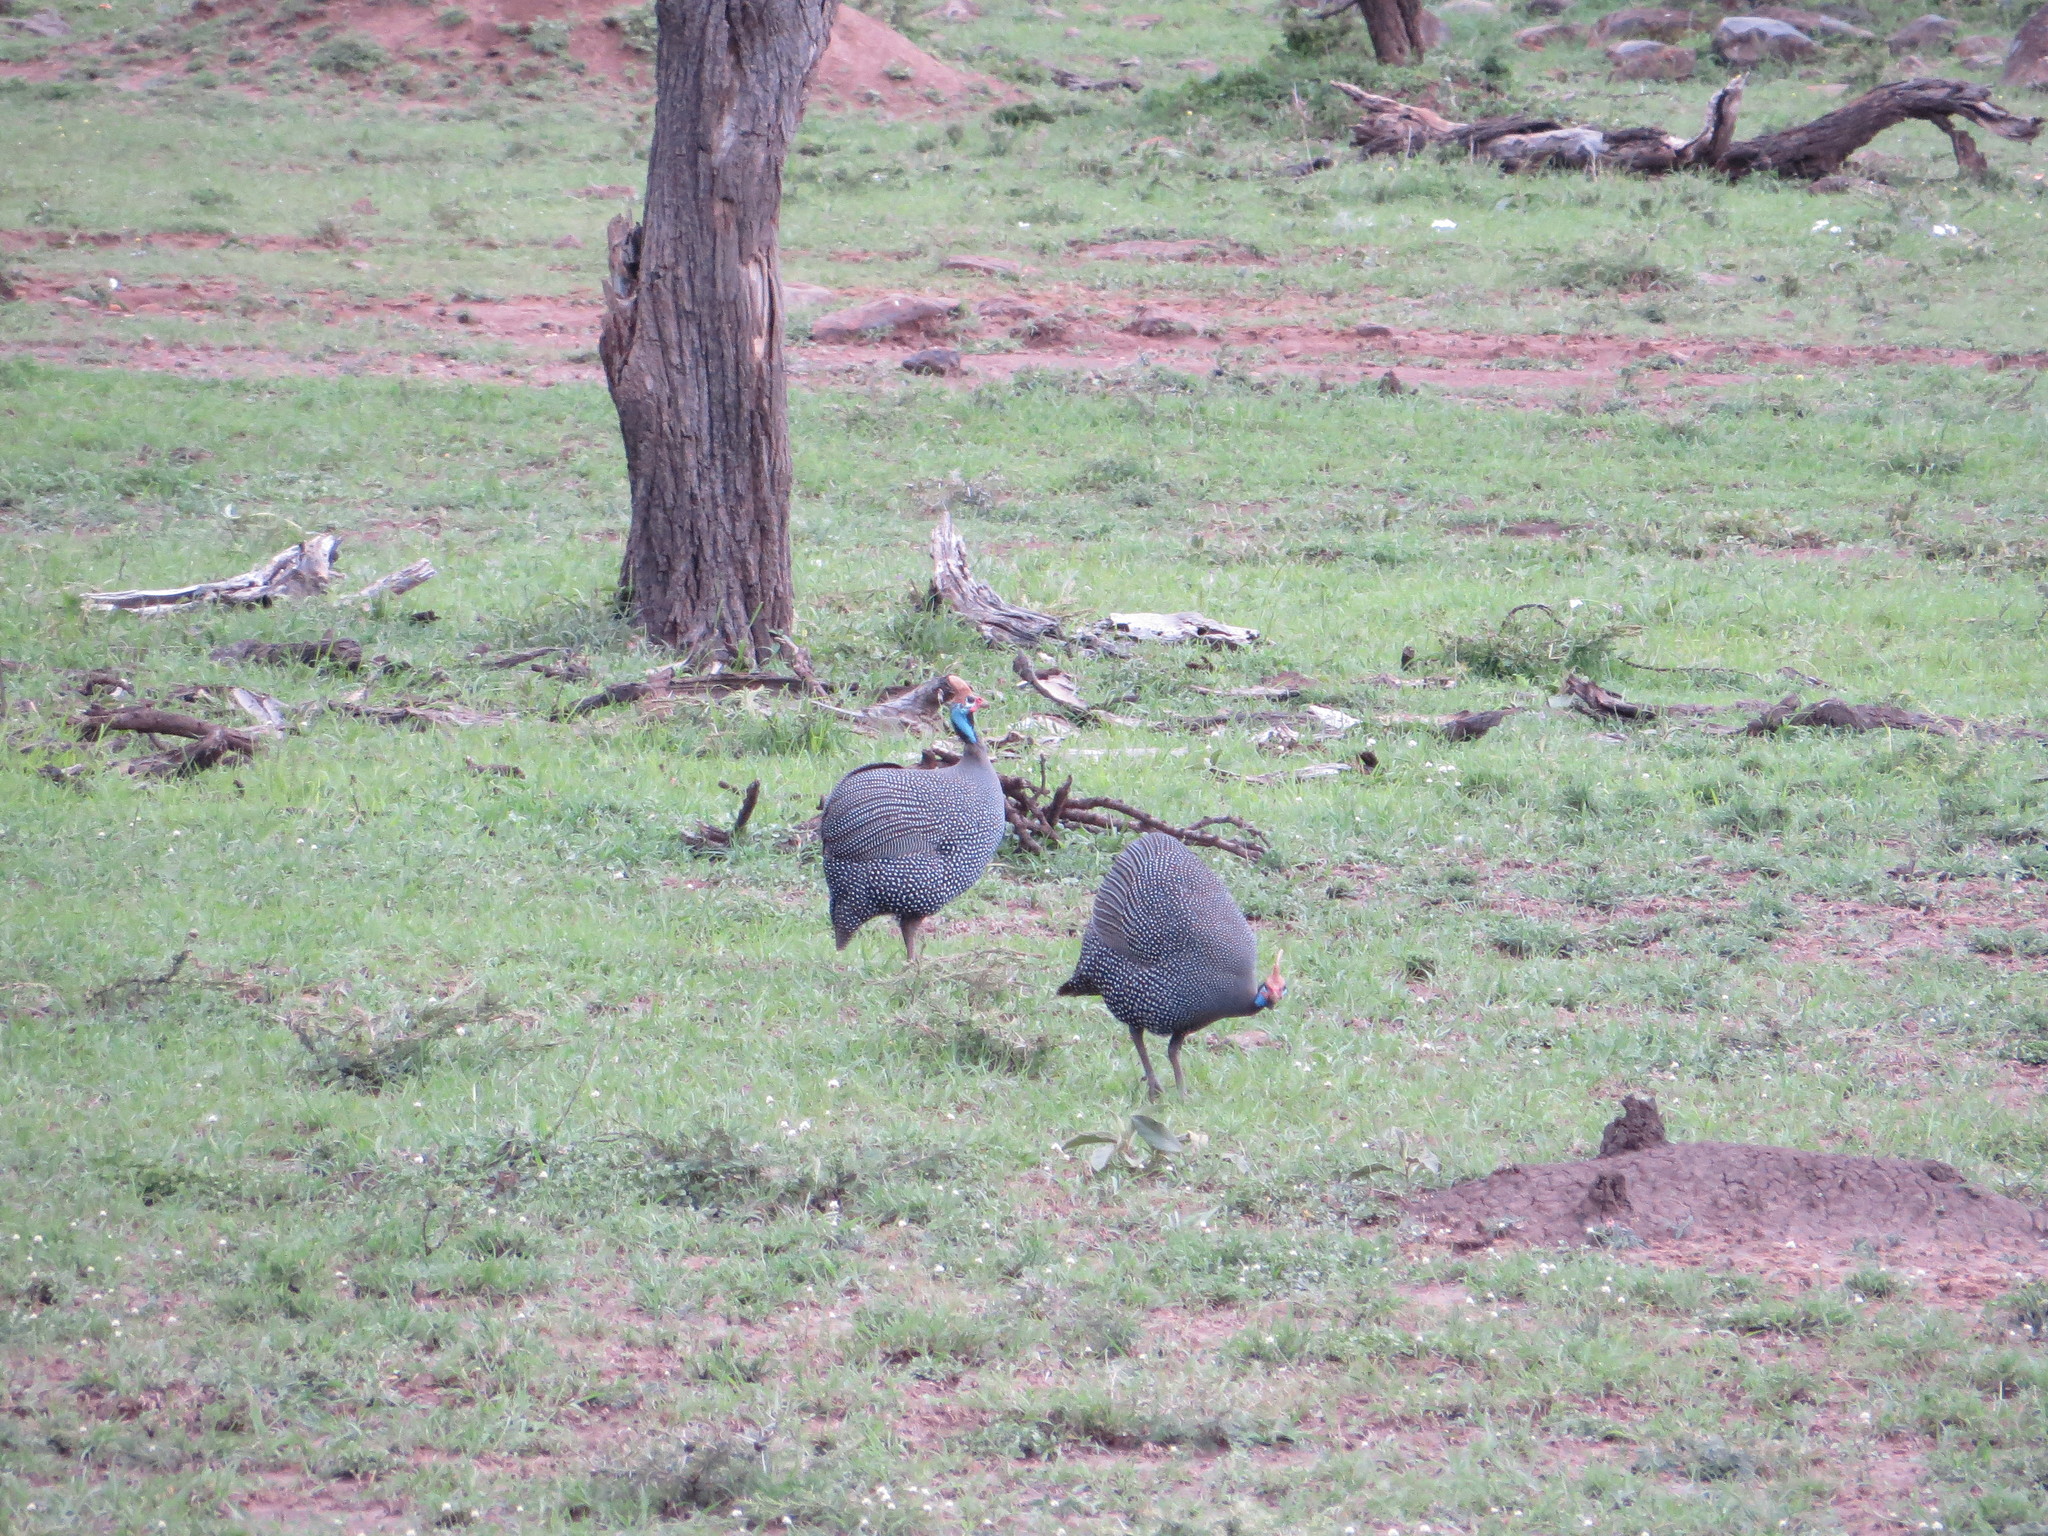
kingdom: Animalia
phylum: Chordata
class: Aves
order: Galliformes
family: Numididae
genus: Numida
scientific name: Numida meleagris
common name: Helmeted guineafowl
